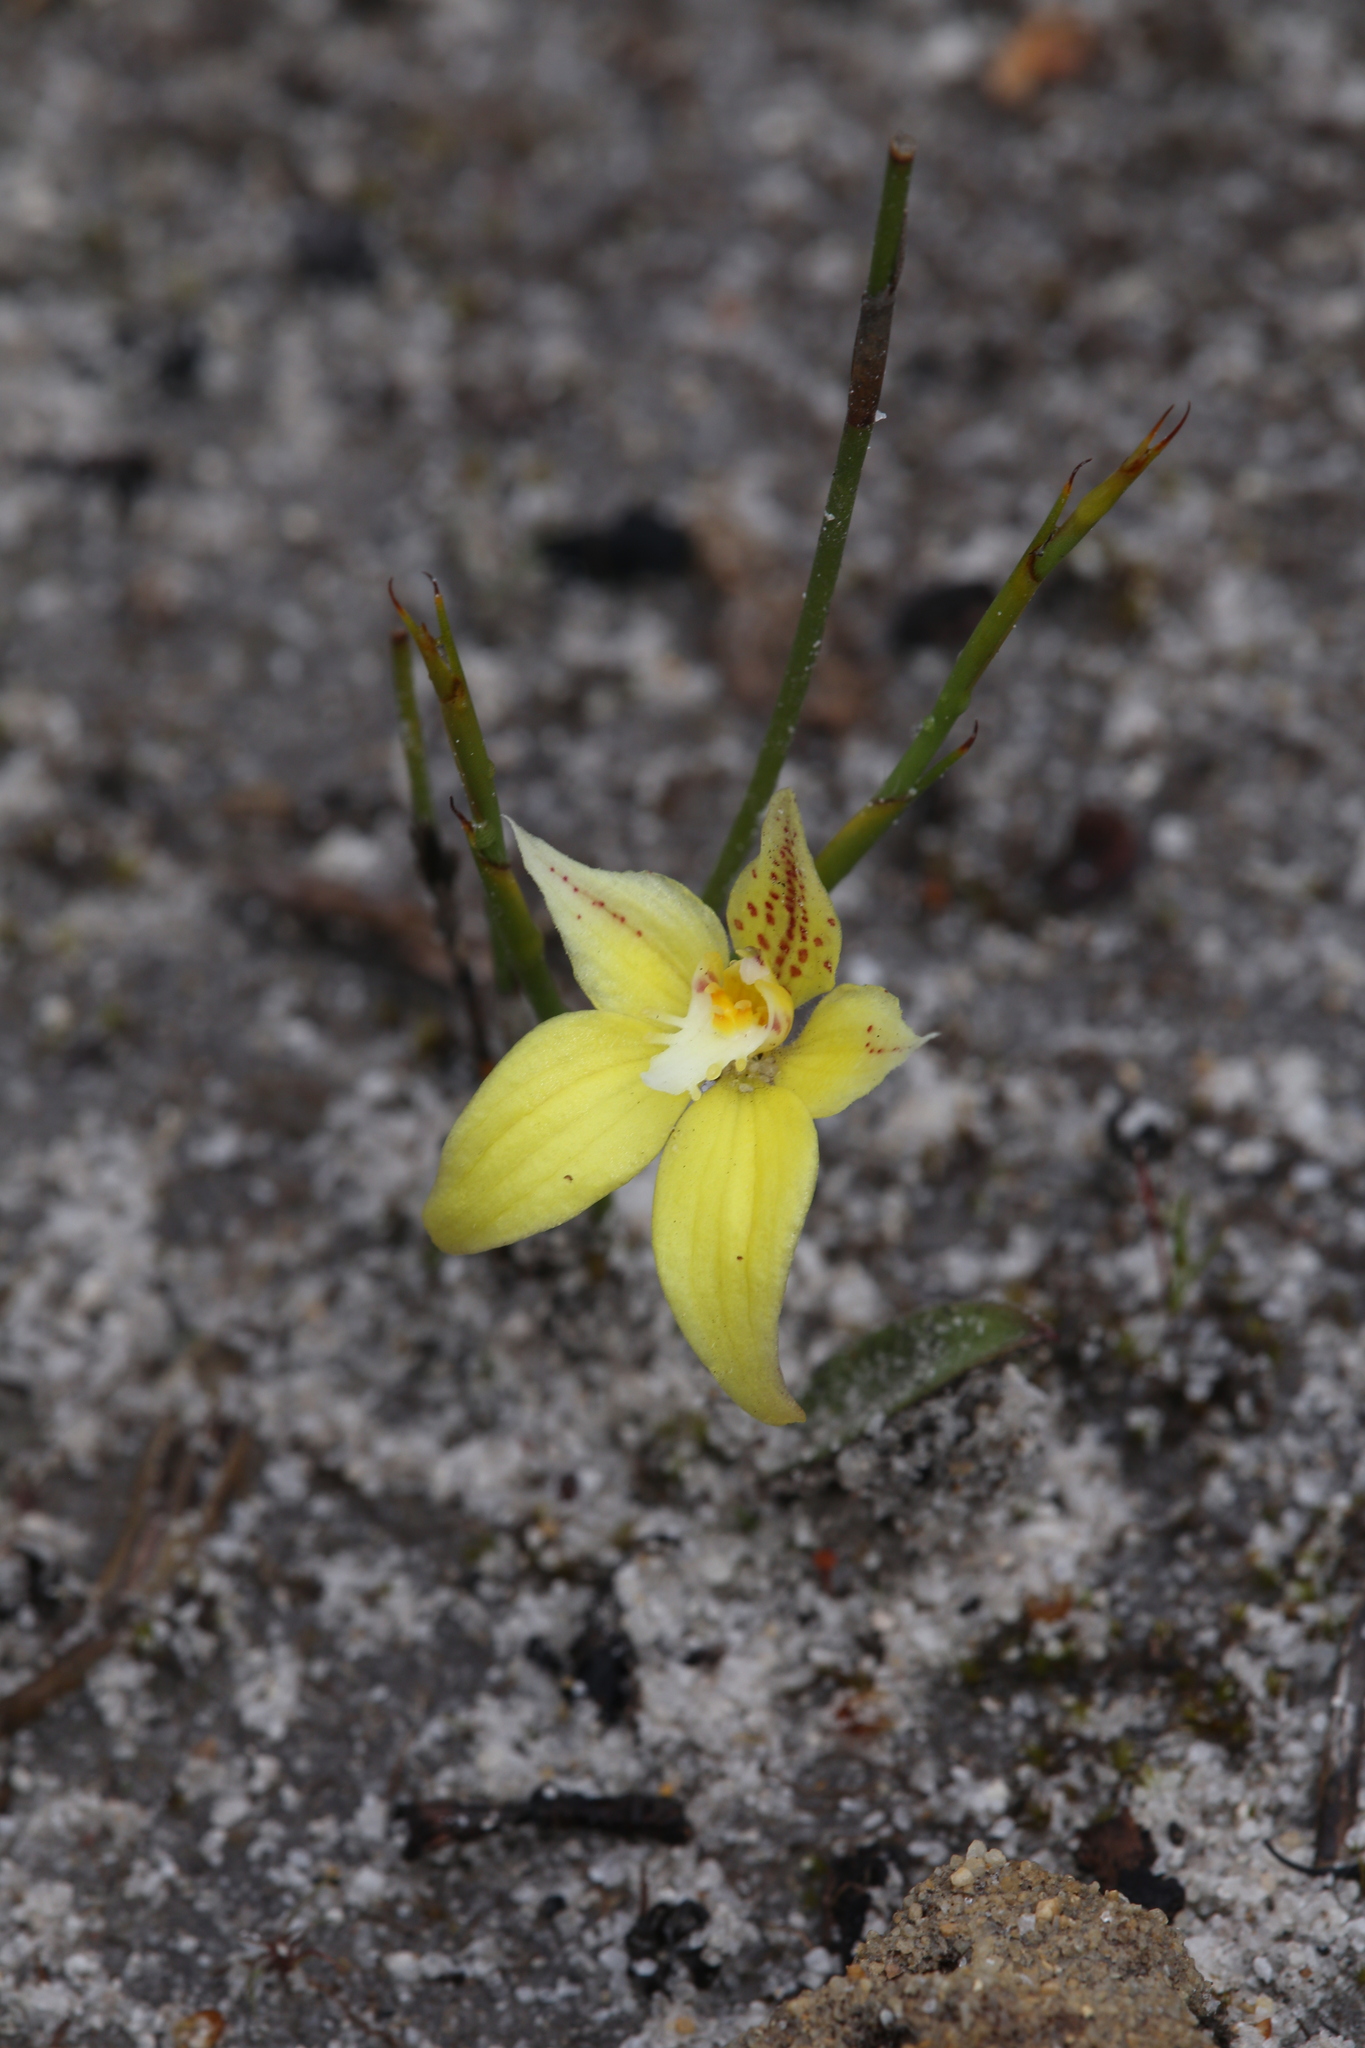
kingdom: Plantae
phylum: Tracheophyta
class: Liliopsida
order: Asparagales
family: Orchidaceae
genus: Caladenia
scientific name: Caladenia flava
